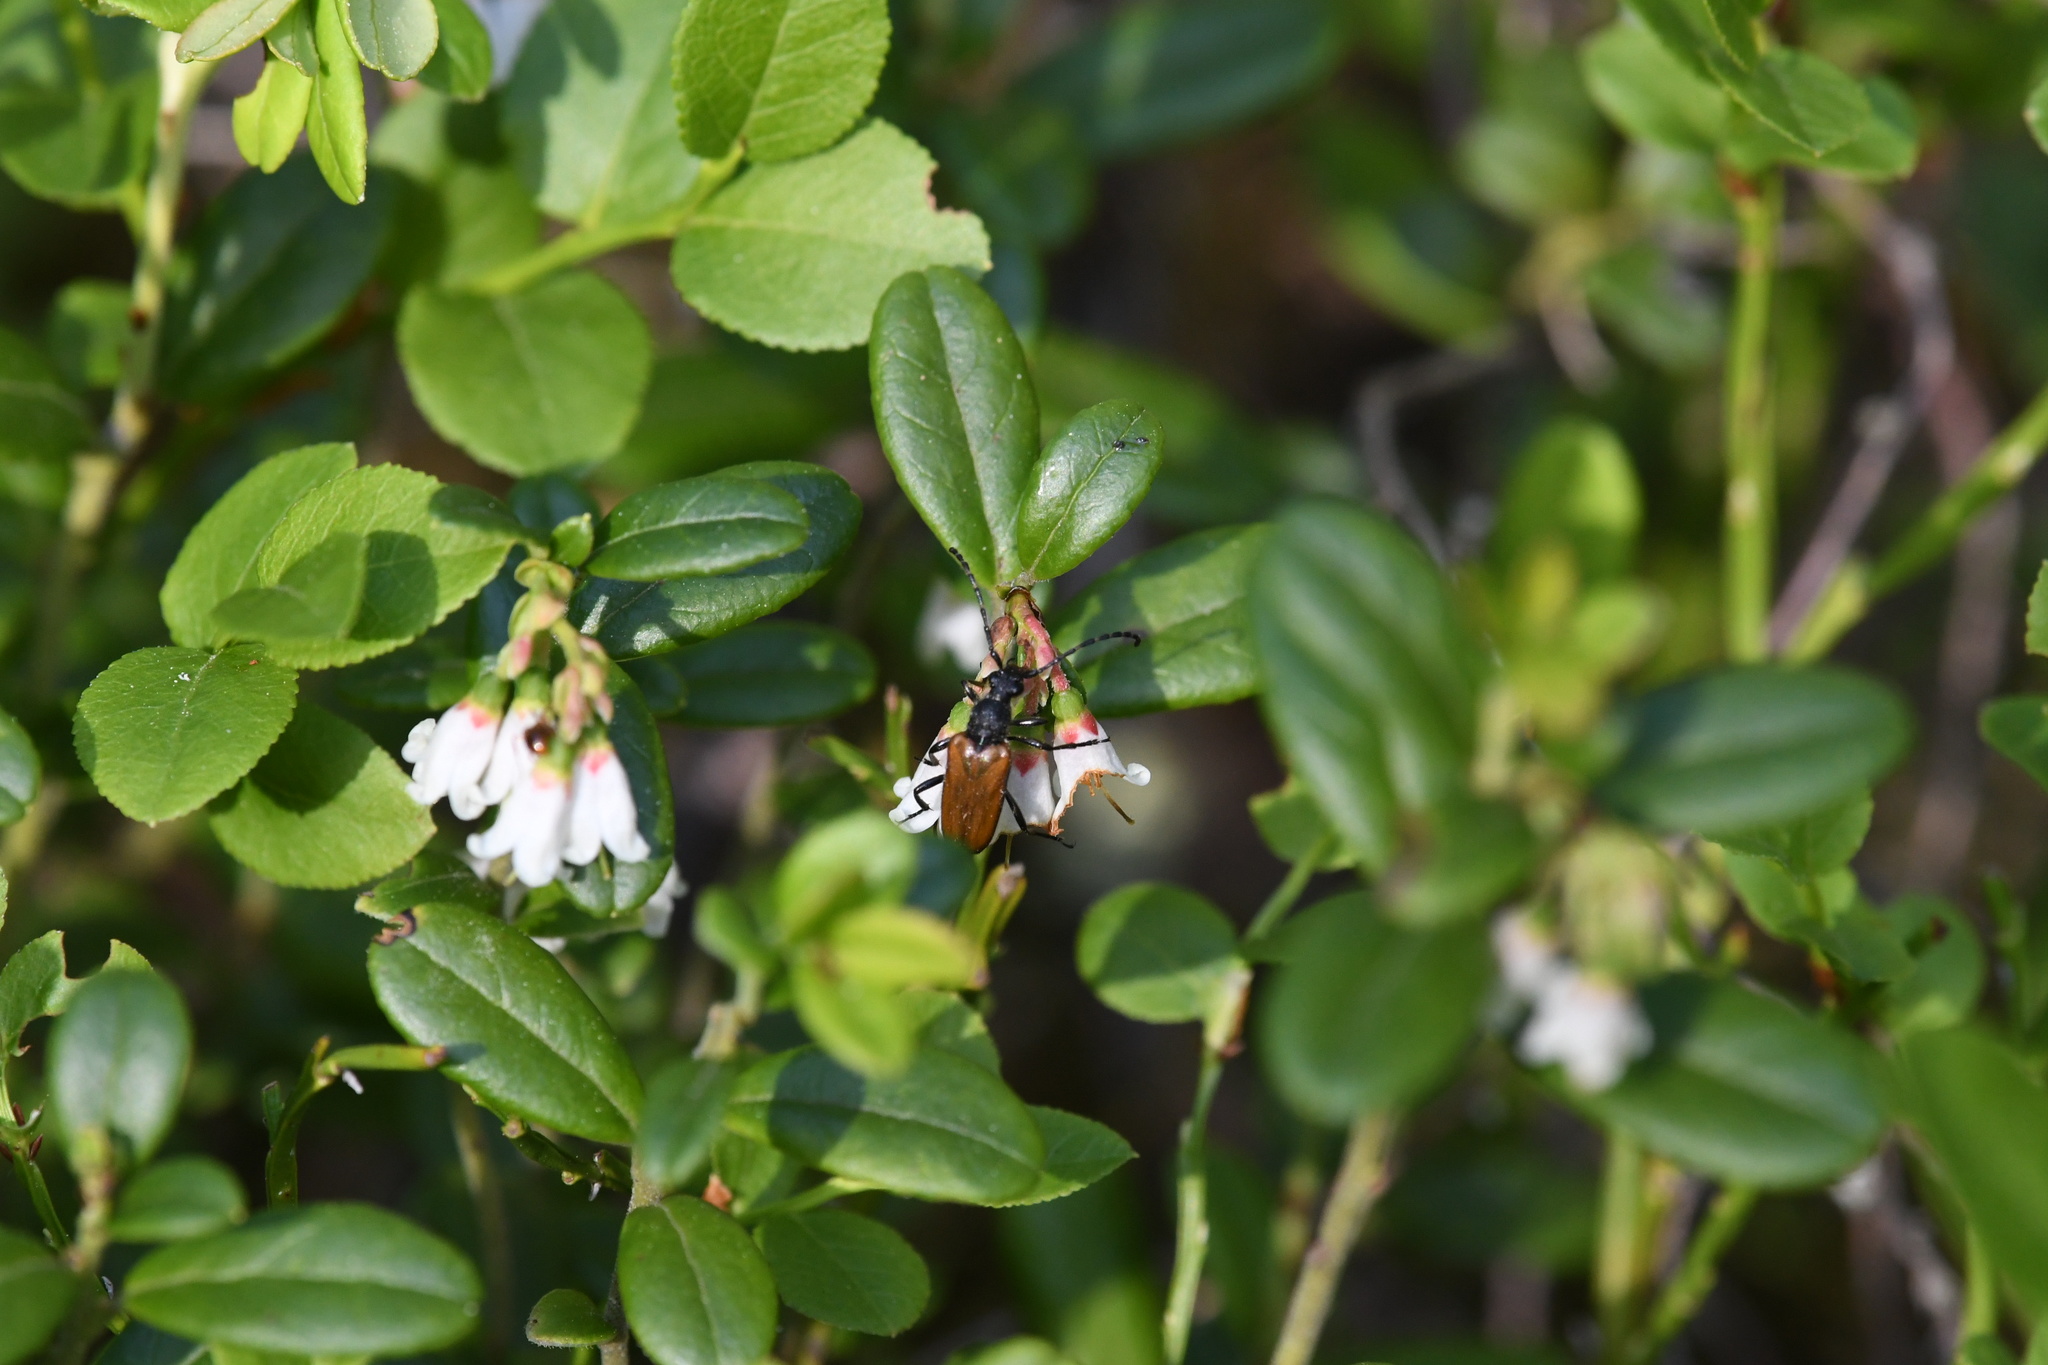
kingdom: Animalia
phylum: Arthropoda
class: Insecta
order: Coleoptera
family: Cerambycidae
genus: Paracorymbia
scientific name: Paracorymbia maculicornis
